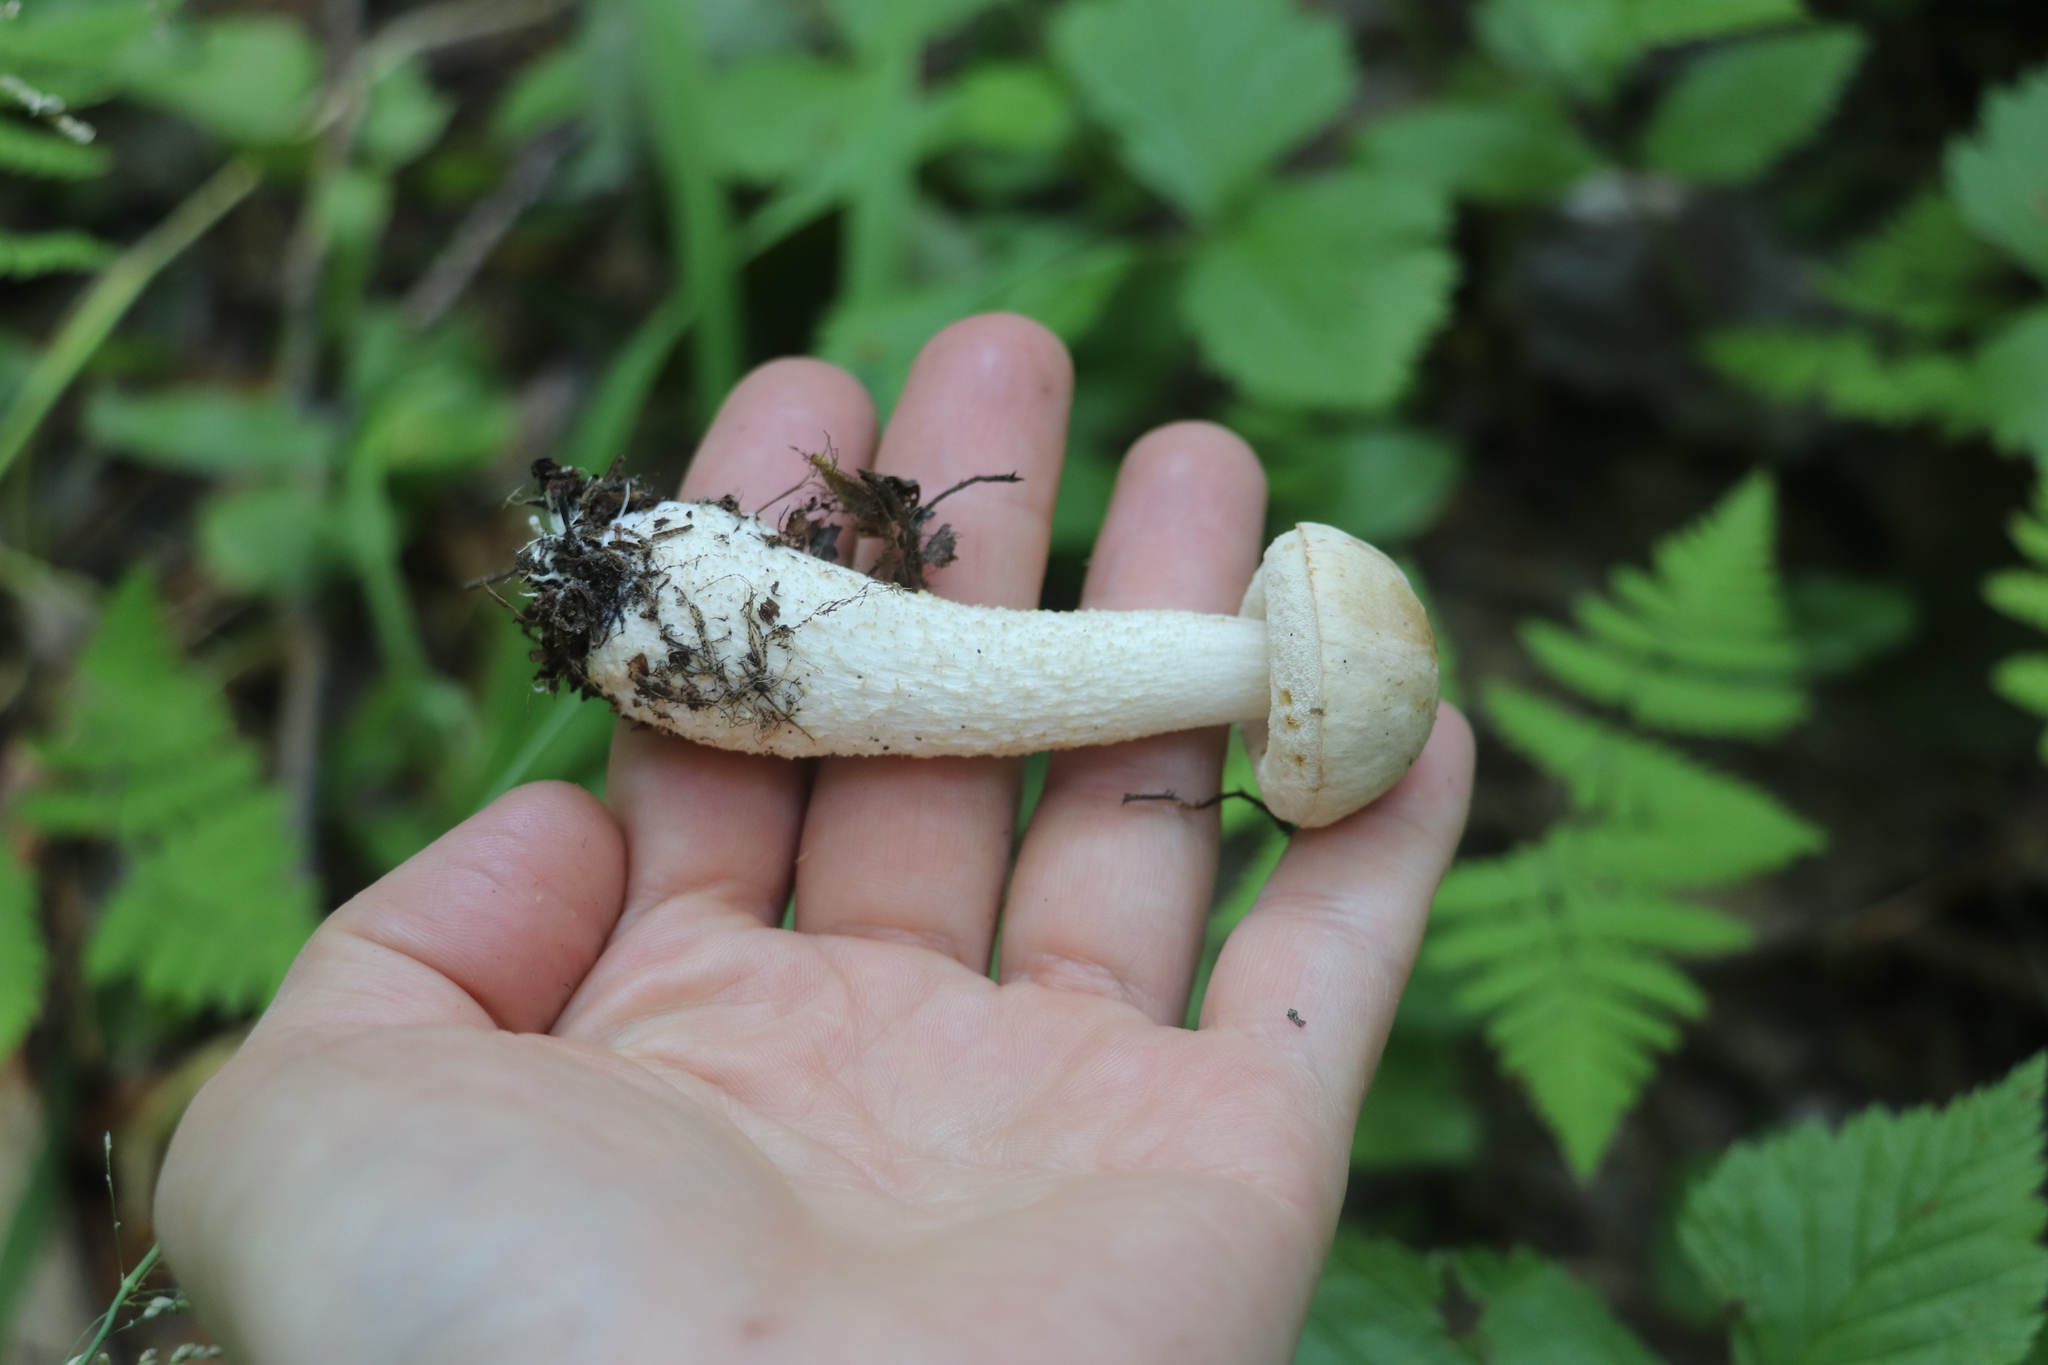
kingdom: Fungi
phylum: Basidiomycota
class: Agaricomycetes
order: Boletales
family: Boletaceae
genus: Leccinum
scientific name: Leccinum scabrum
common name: Blushing bolete
